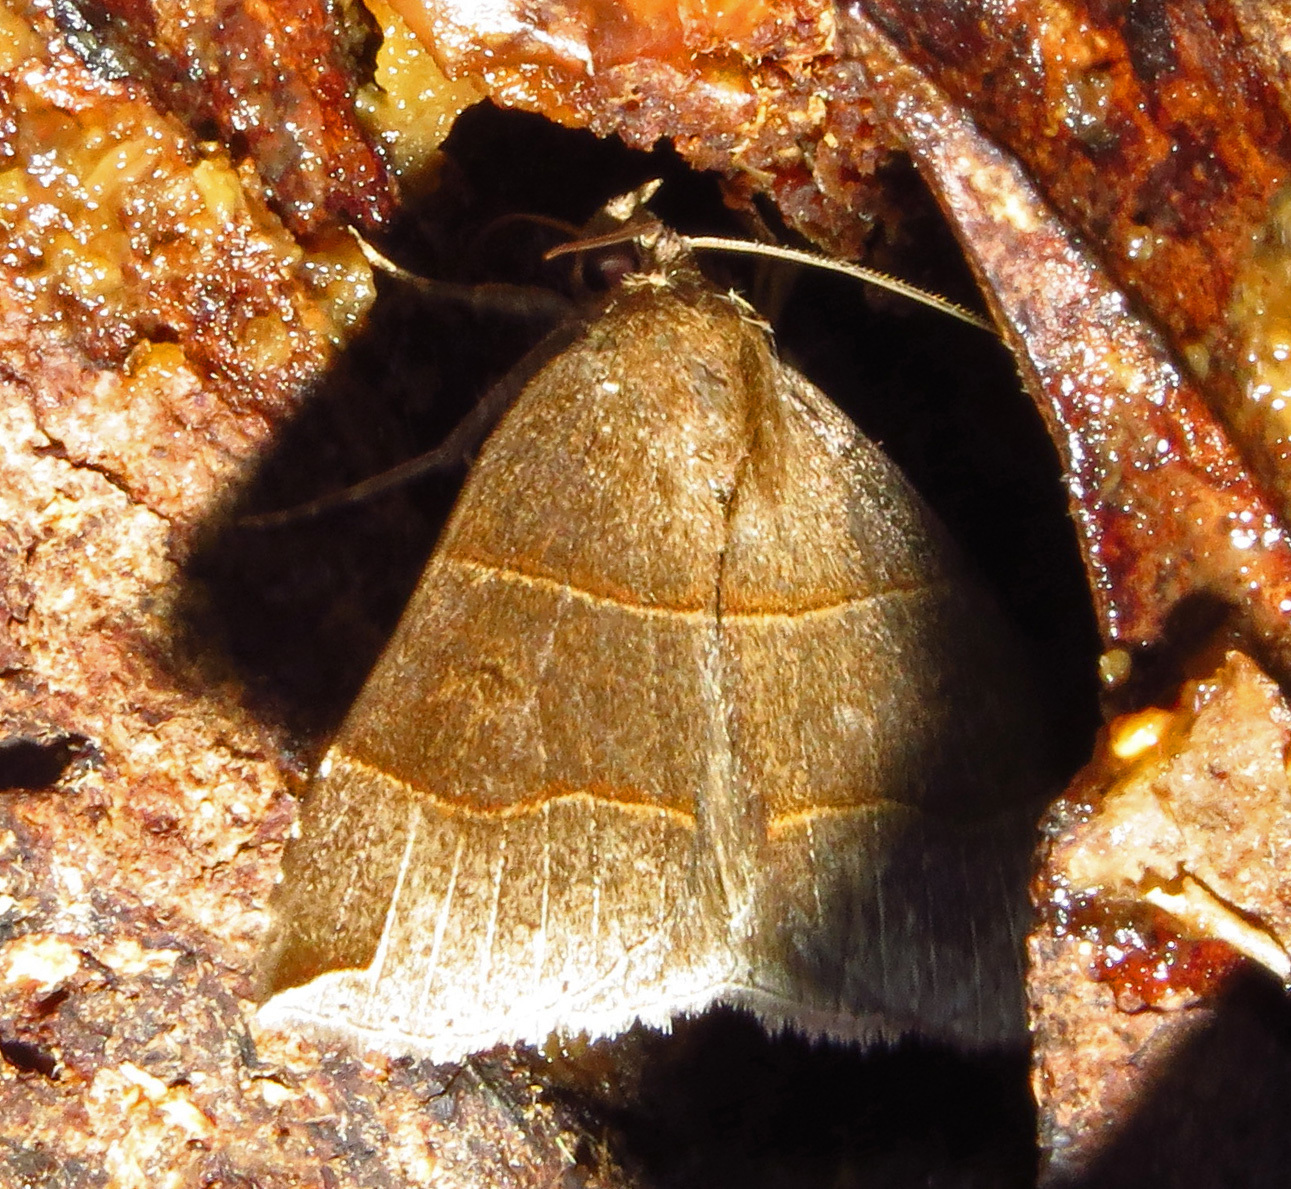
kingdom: Animalia
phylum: Arthropoda
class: Insecta
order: Lepidoptera
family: Erebidae
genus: Parallelia
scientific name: Parallelia bistriaris
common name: Maple looper moth
